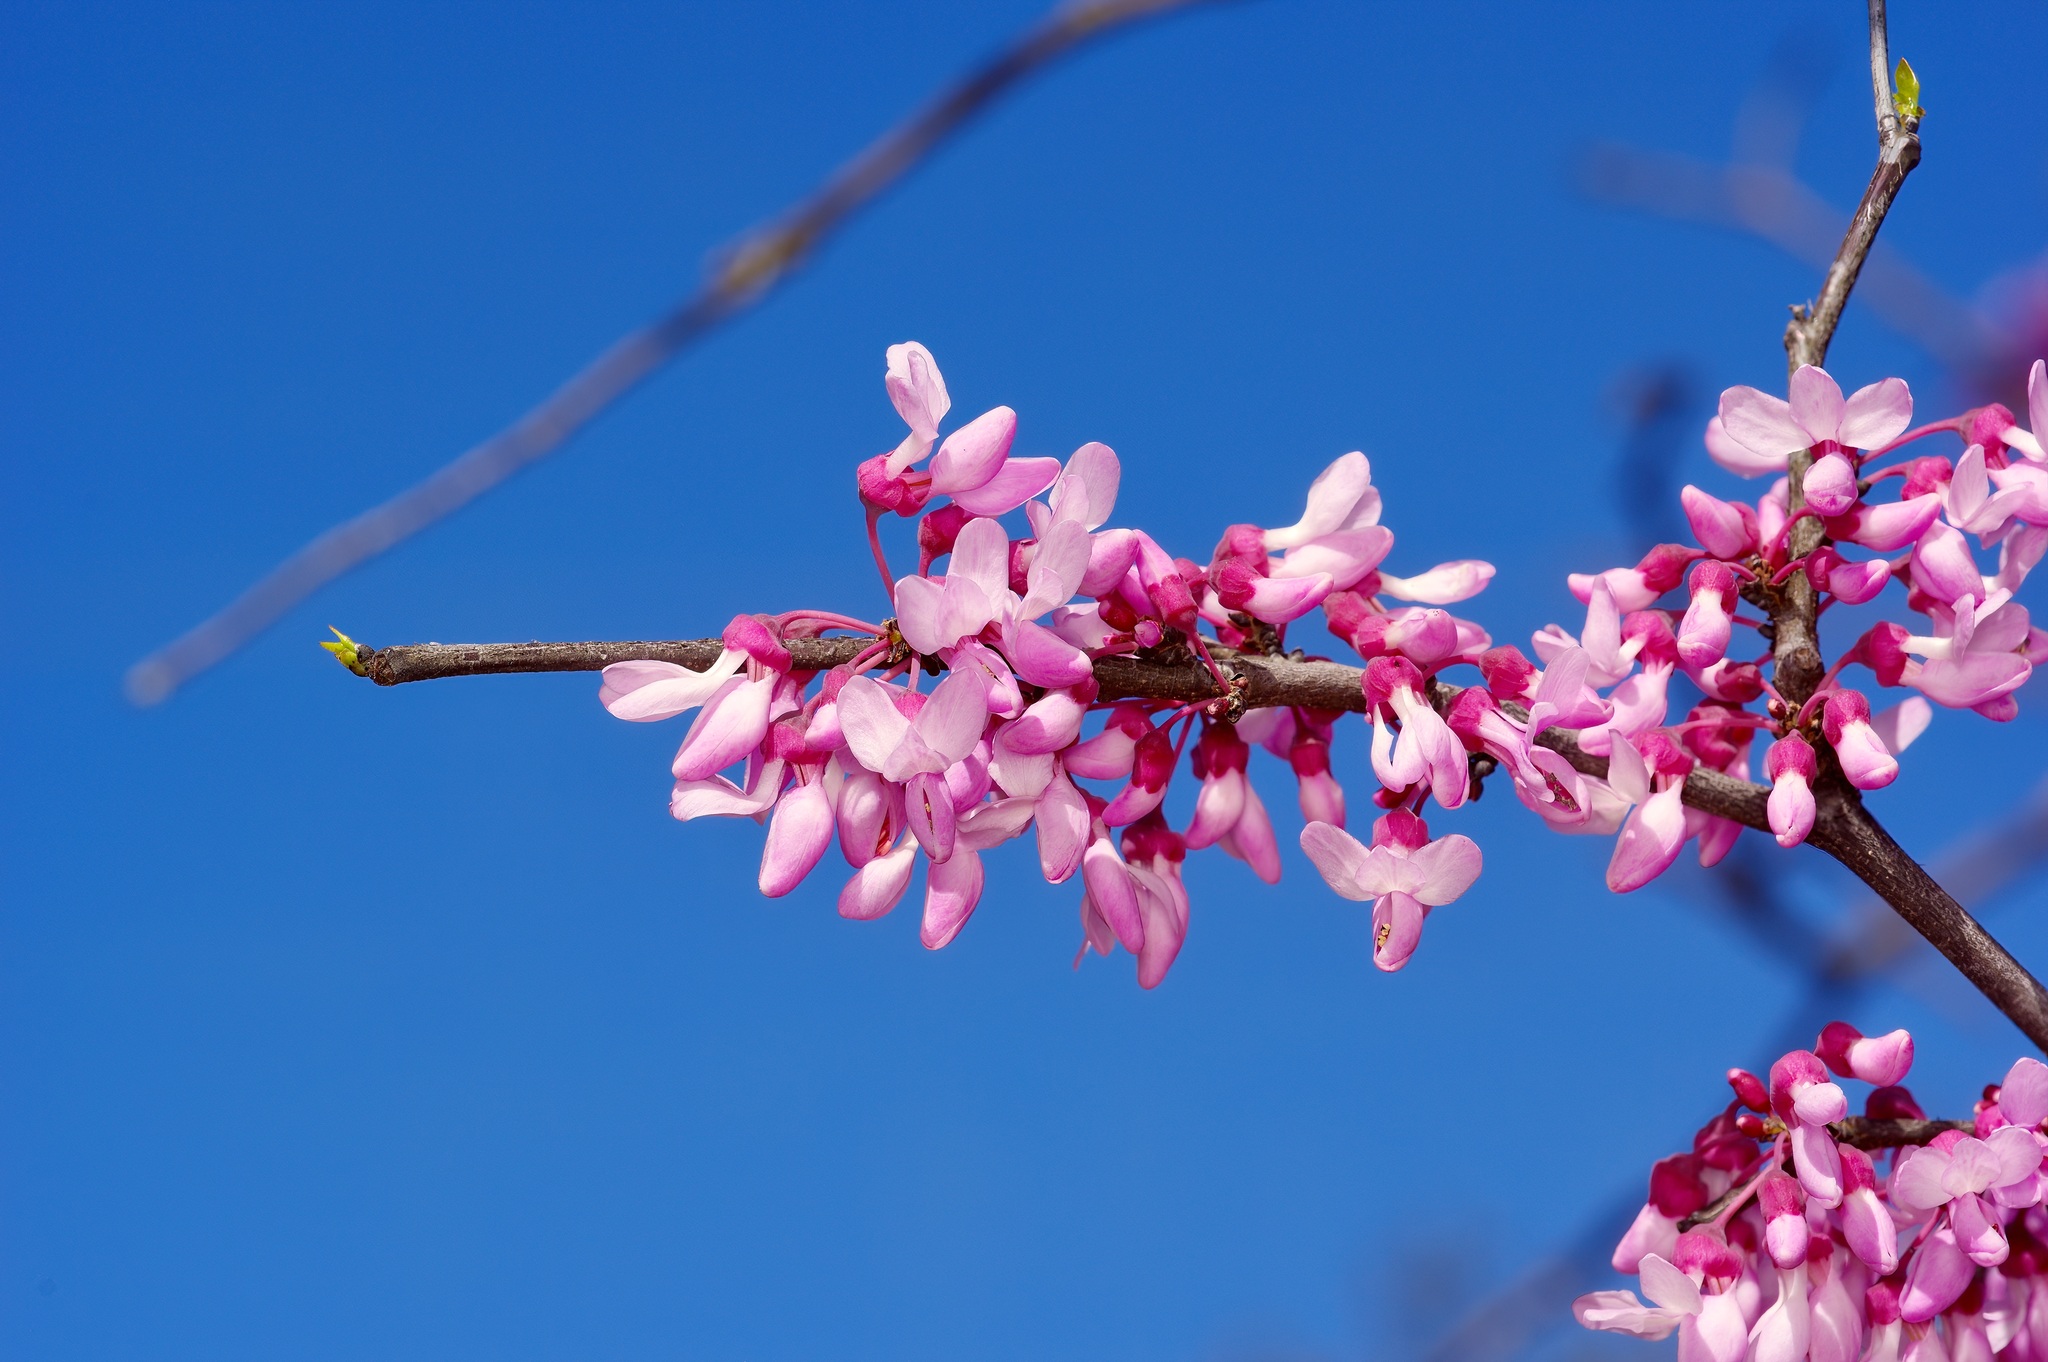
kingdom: Plantae
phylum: Tracheophyta
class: Magnoliopsida
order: Fabales
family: Fabaceae
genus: Cercis
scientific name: Cercis canadensis
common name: Eastern redbud
